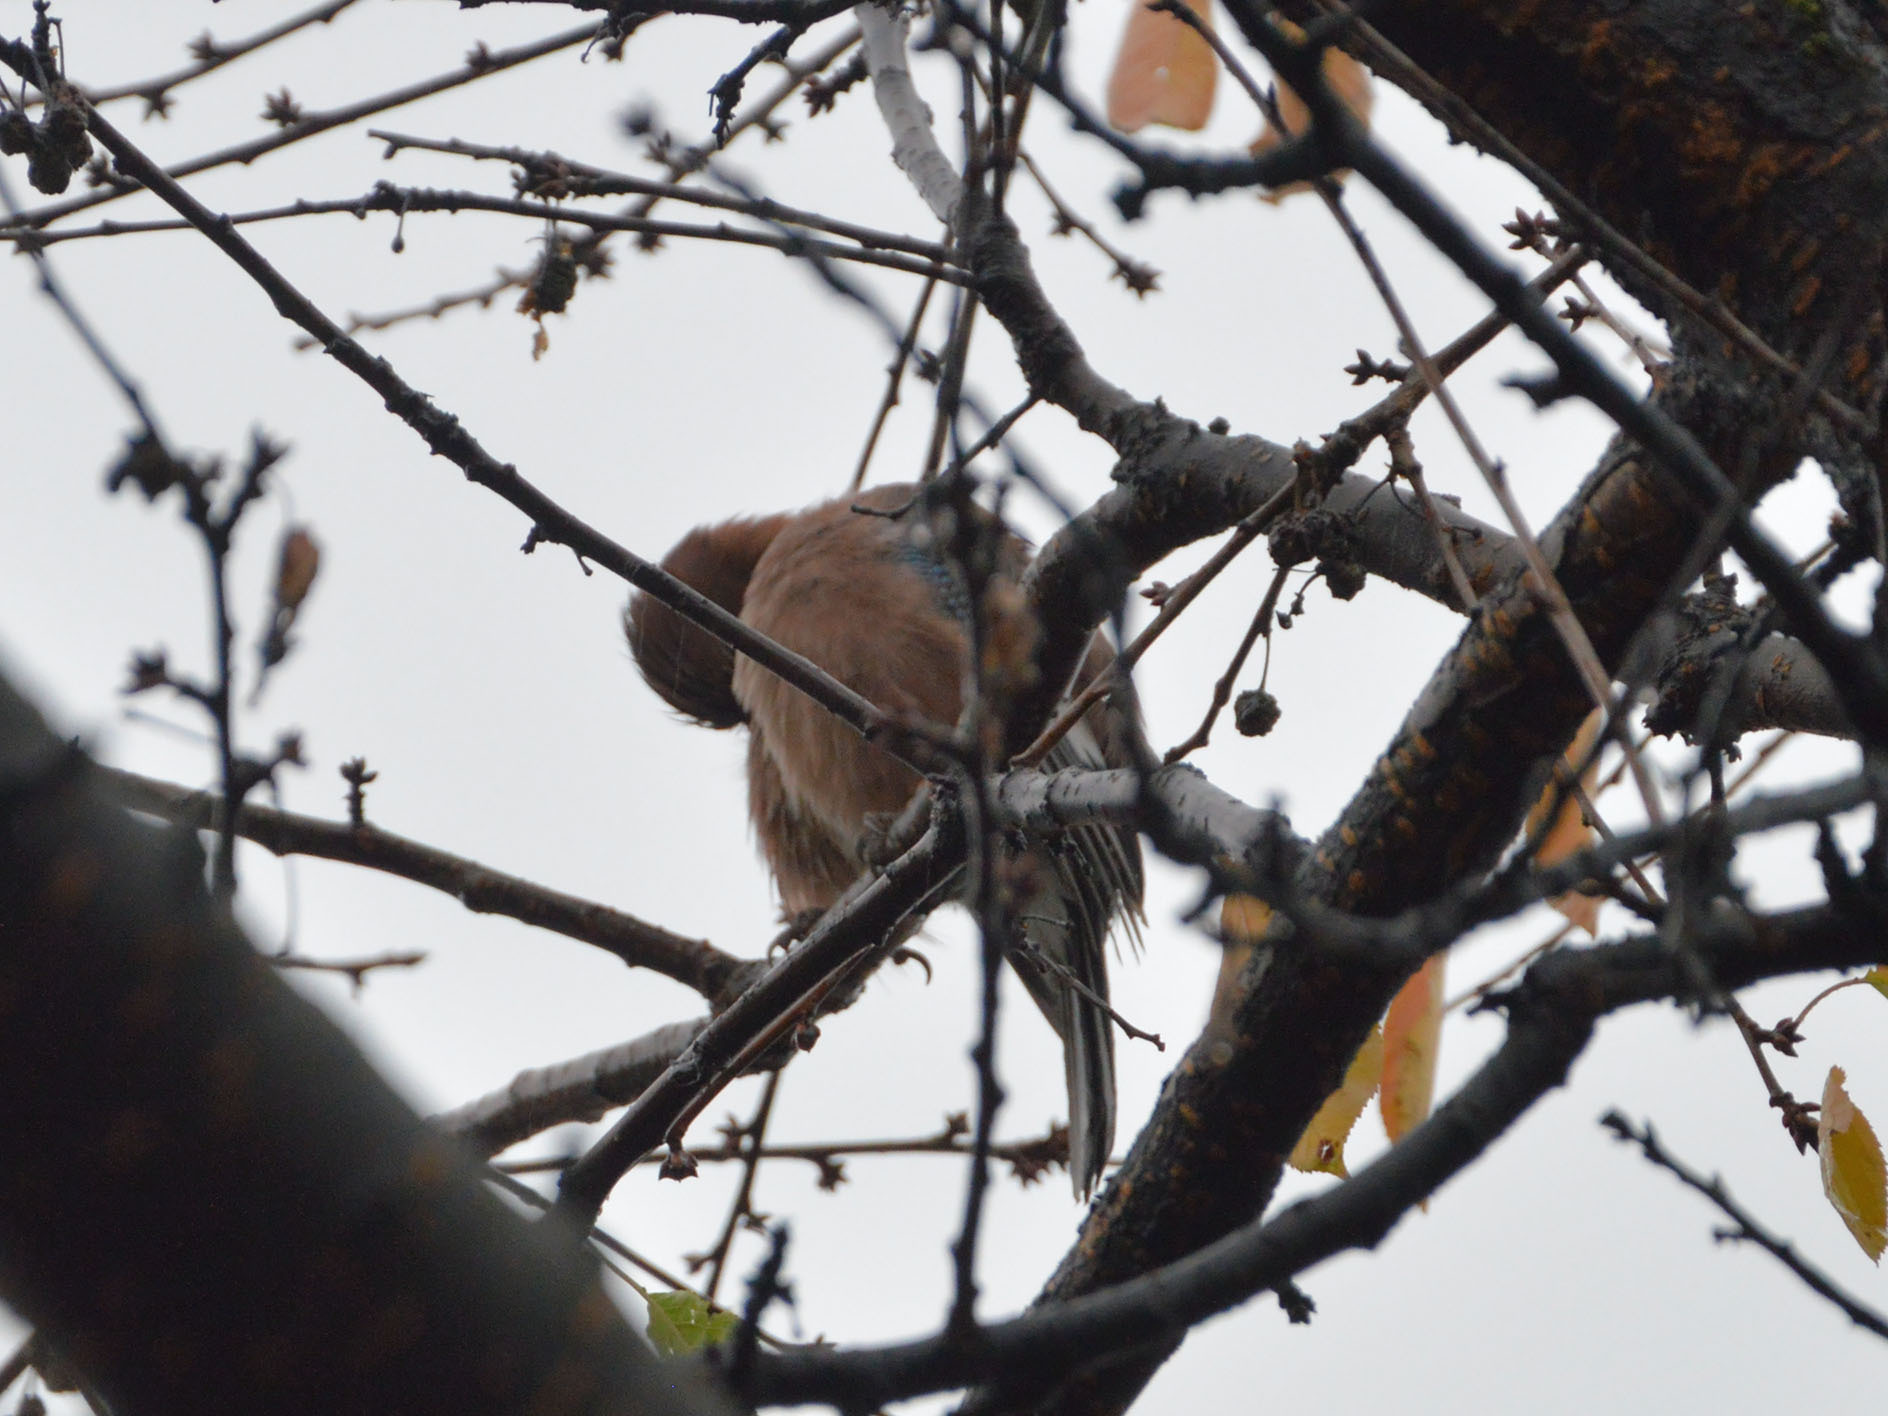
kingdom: Animalia
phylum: Chordata
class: Aves
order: Passeriformes
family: Corvidae
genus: Garrulus
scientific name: Garrulus glandarius
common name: Eurasian jay
